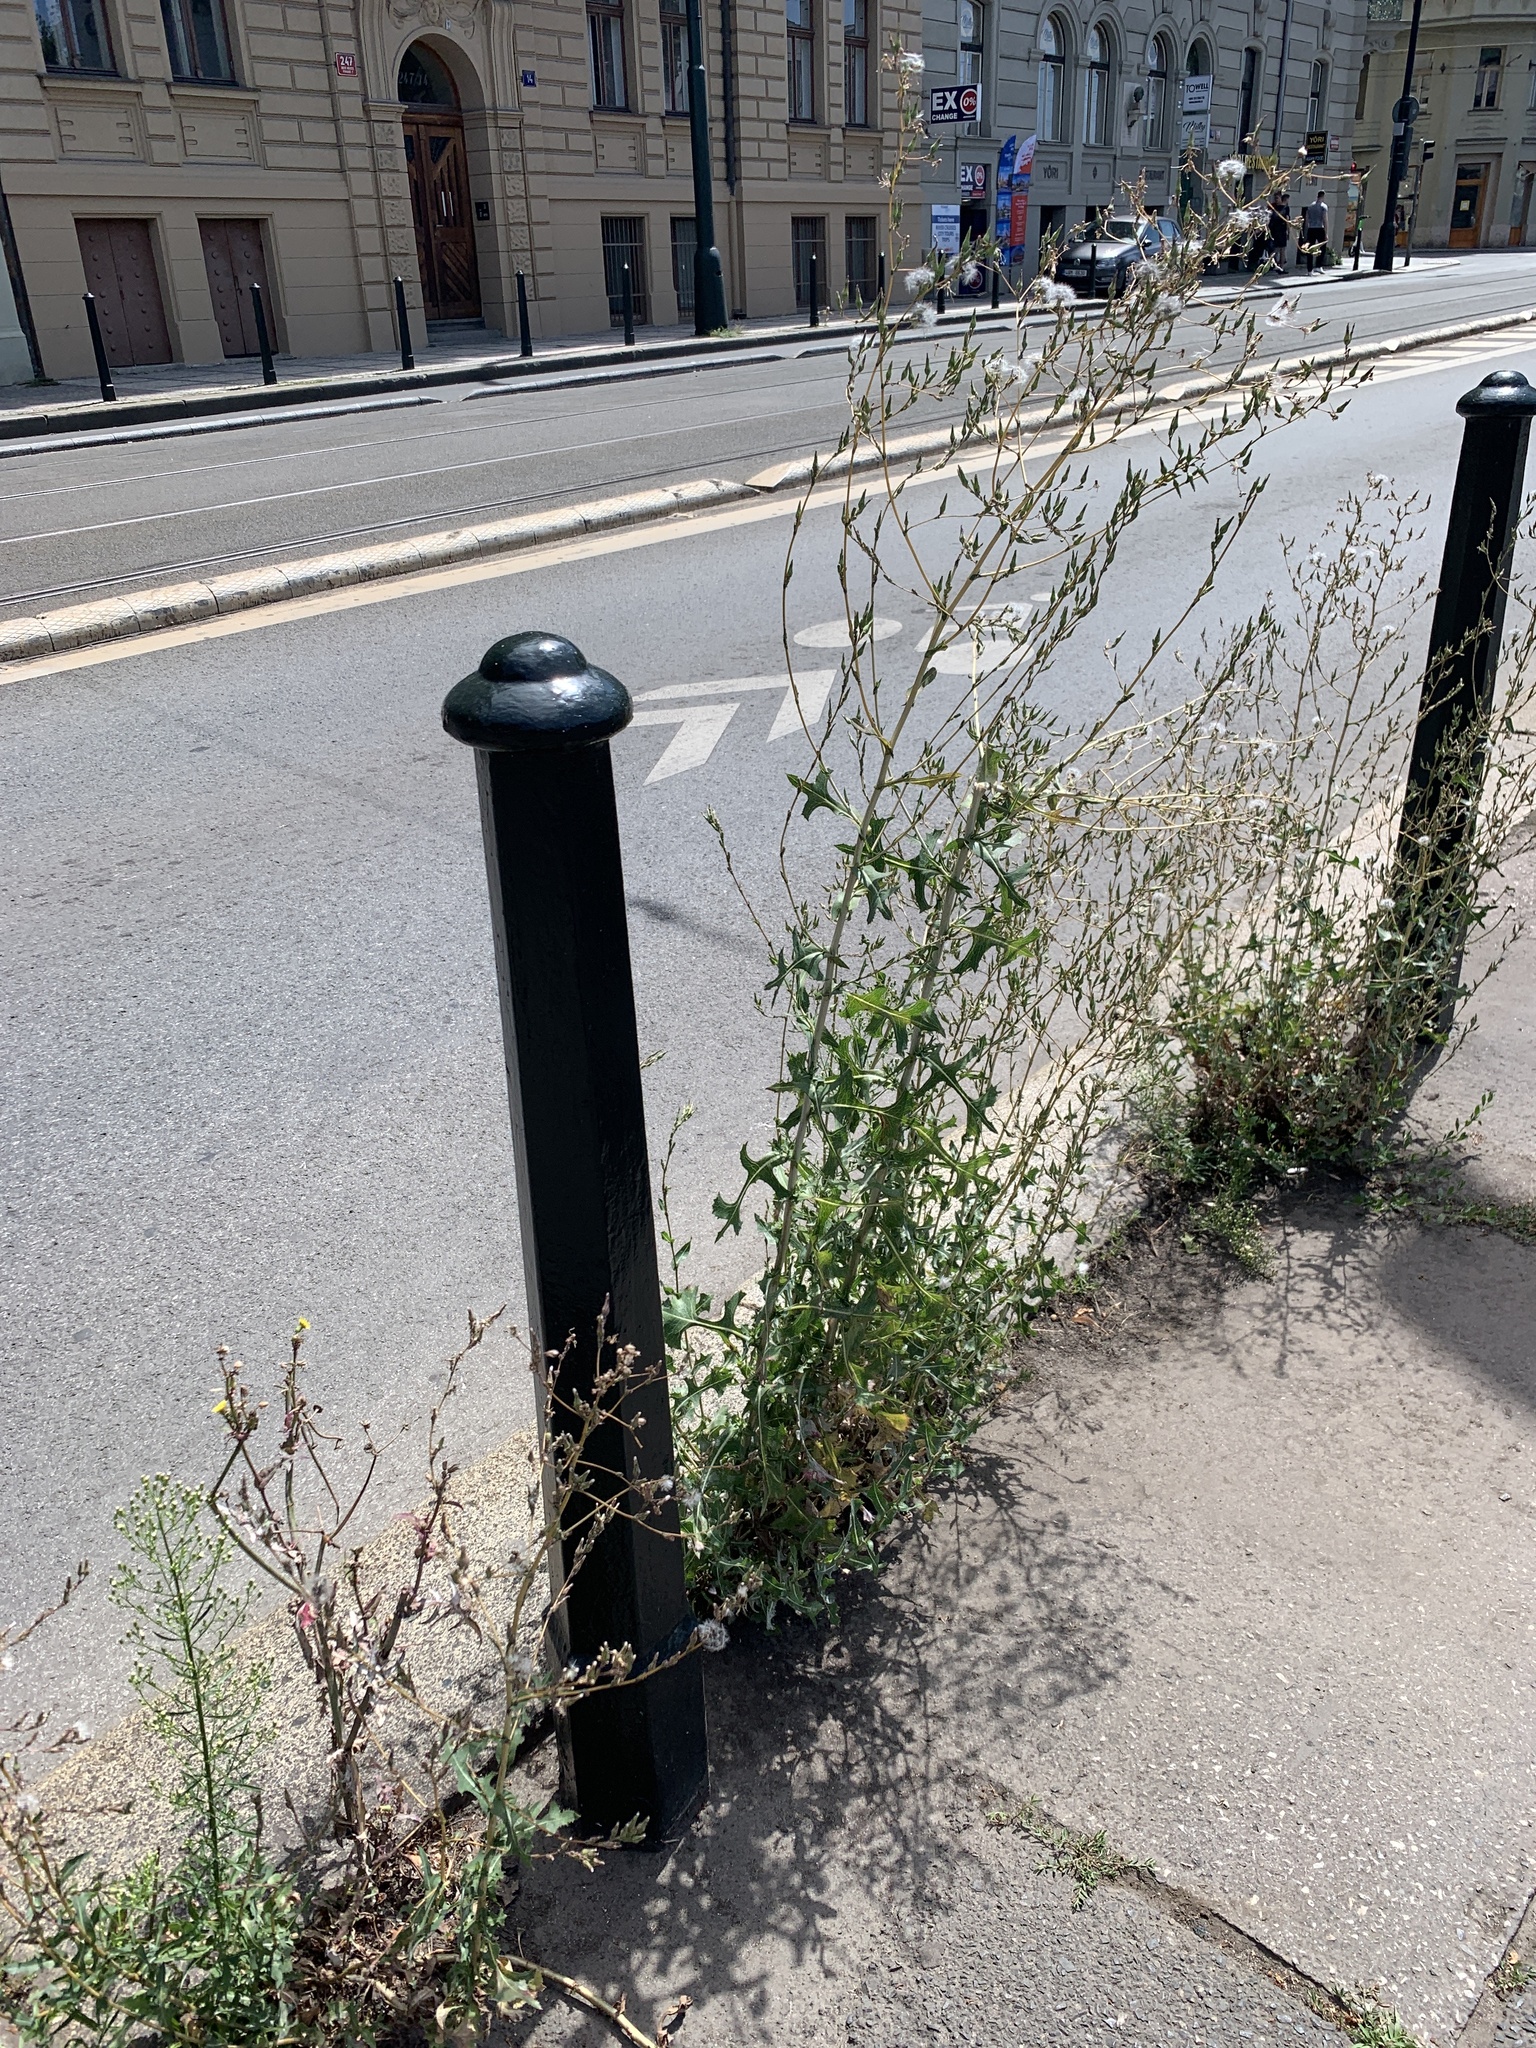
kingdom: Plantae
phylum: Tracheophyta
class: Magnoliopsida
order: Asterales
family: Asteraceae
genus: Lactuca
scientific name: Lactuca serriola
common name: Prickly lettuce
